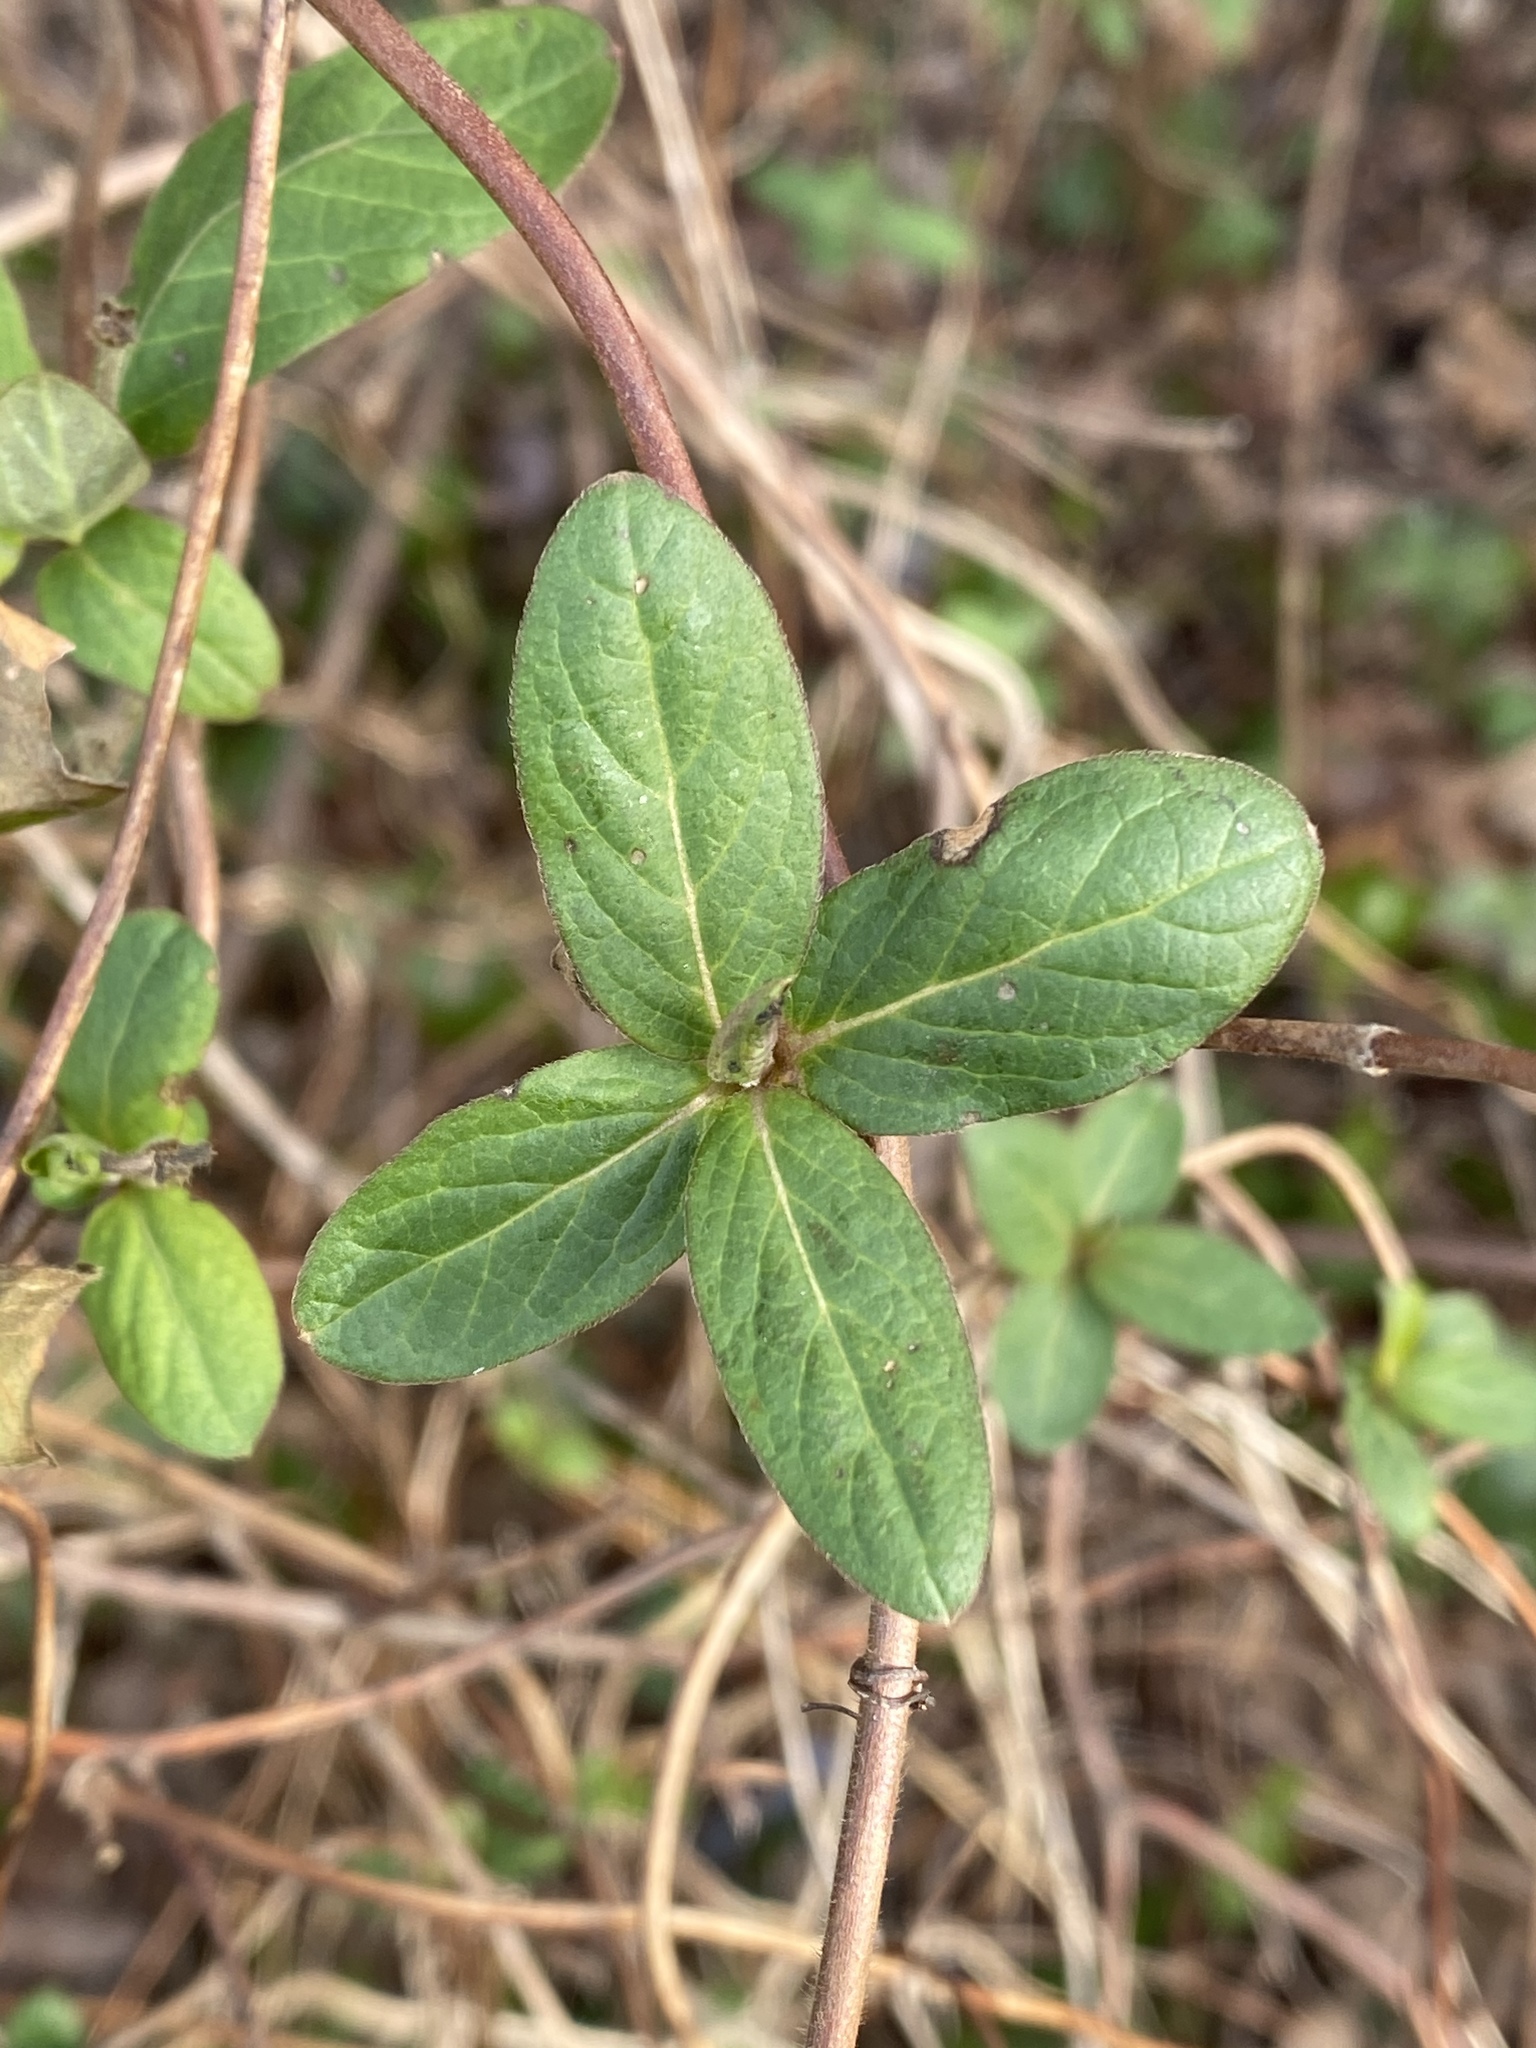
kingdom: Plantae
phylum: Tracheophyta
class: Magnoliopsida
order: Dipsacales
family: Caprifoliaceae
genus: Lonicera
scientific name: Lonicera japonica
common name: Japanese honeysuckle
